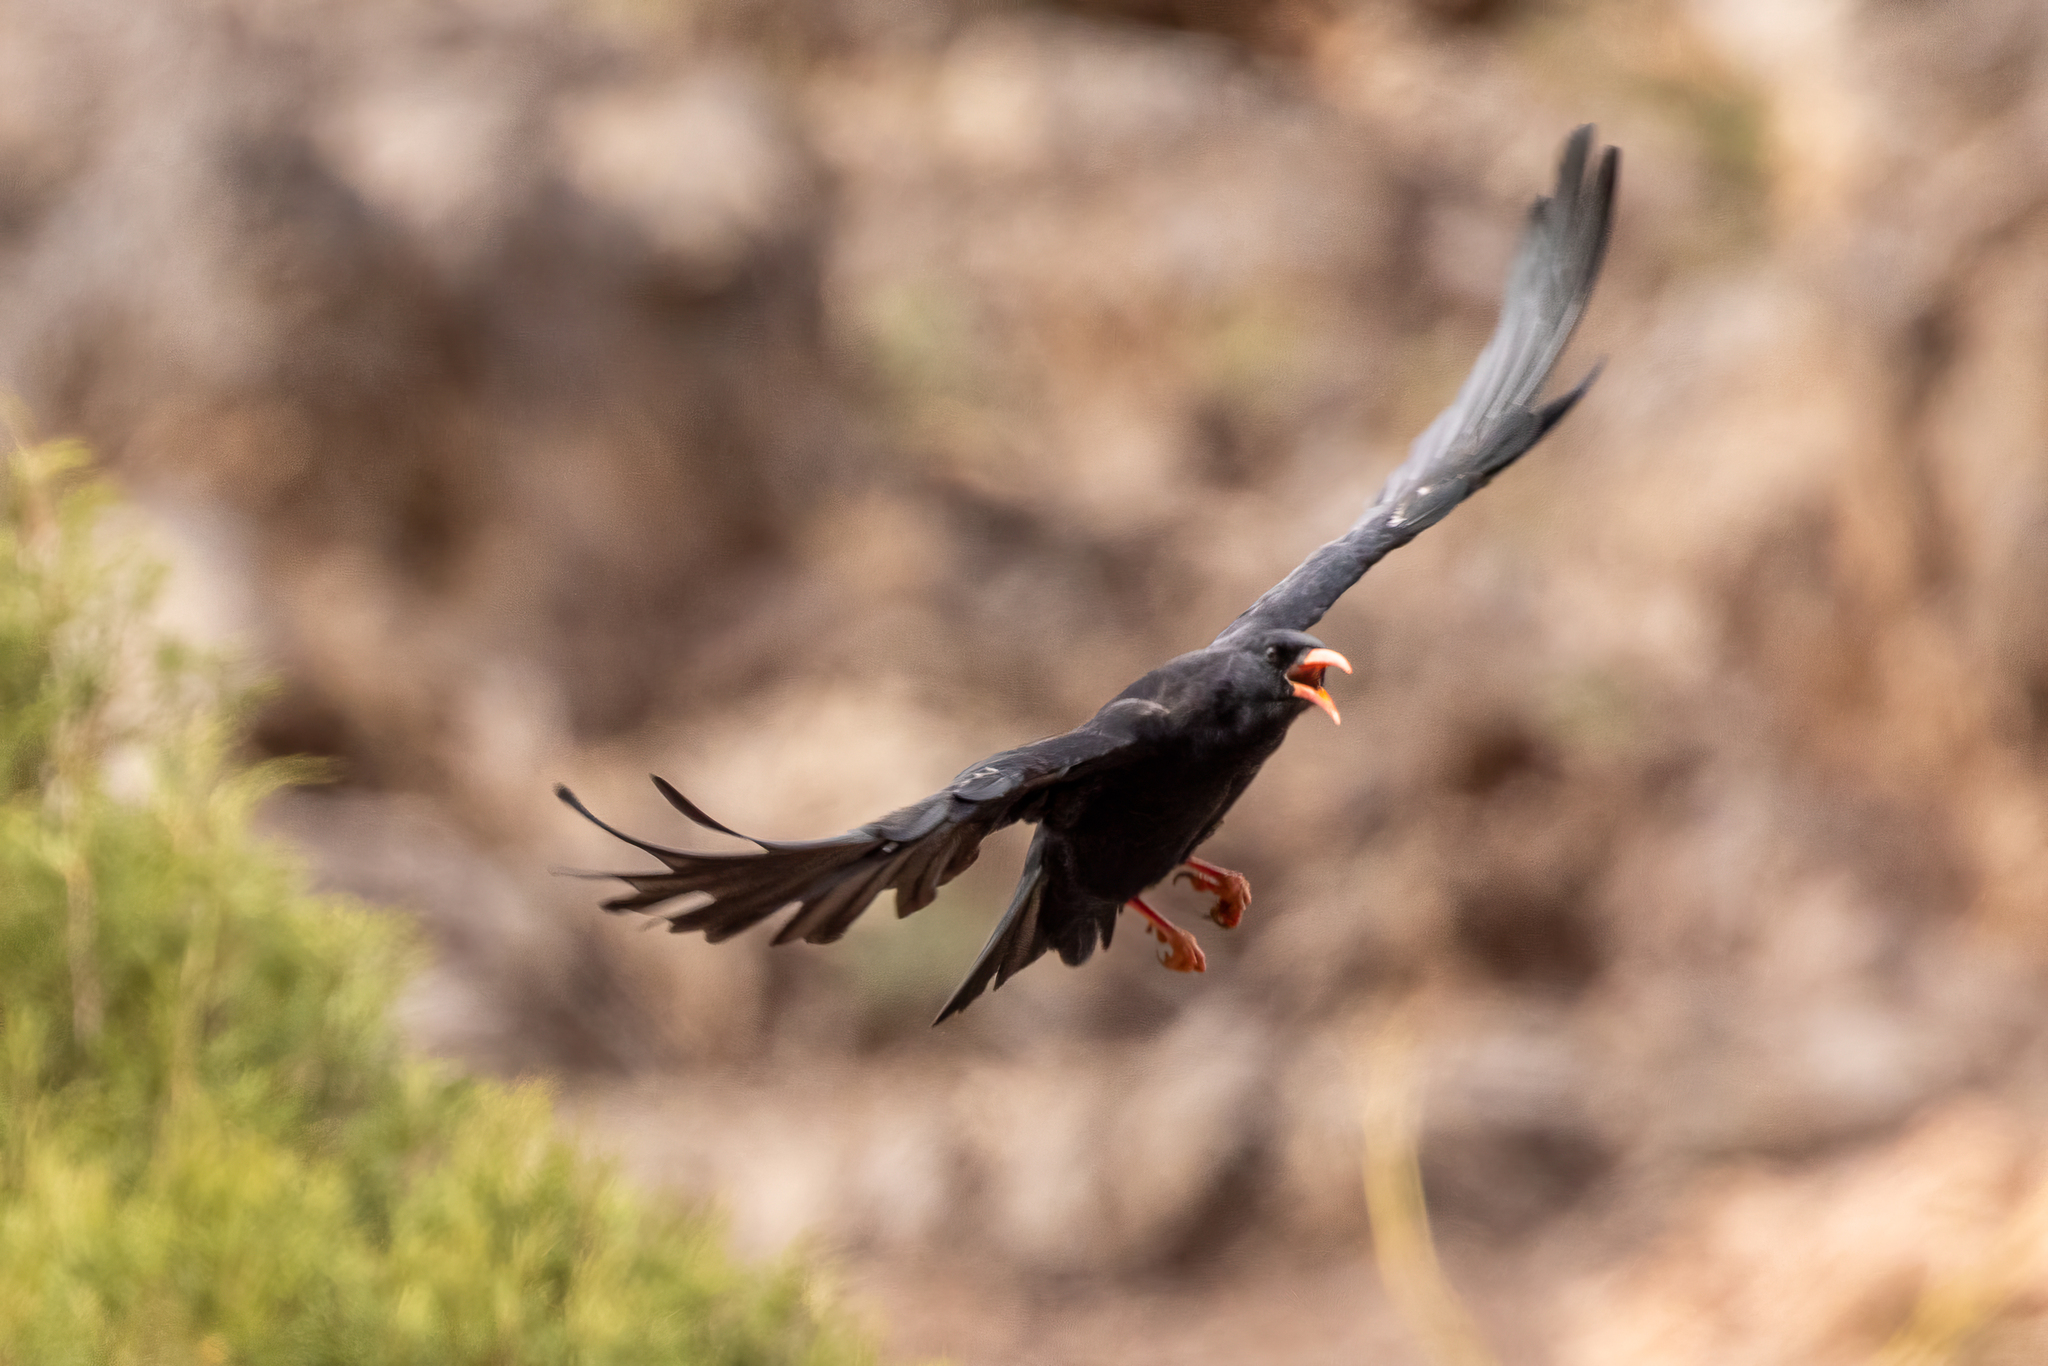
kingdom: Animalia
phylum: Chordata
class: Aves
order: Passeriformes
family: Corvidae
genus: Pyrrhocorax
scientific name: Pyrrhocorax pyrrhocorax
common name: Red-billed chough
